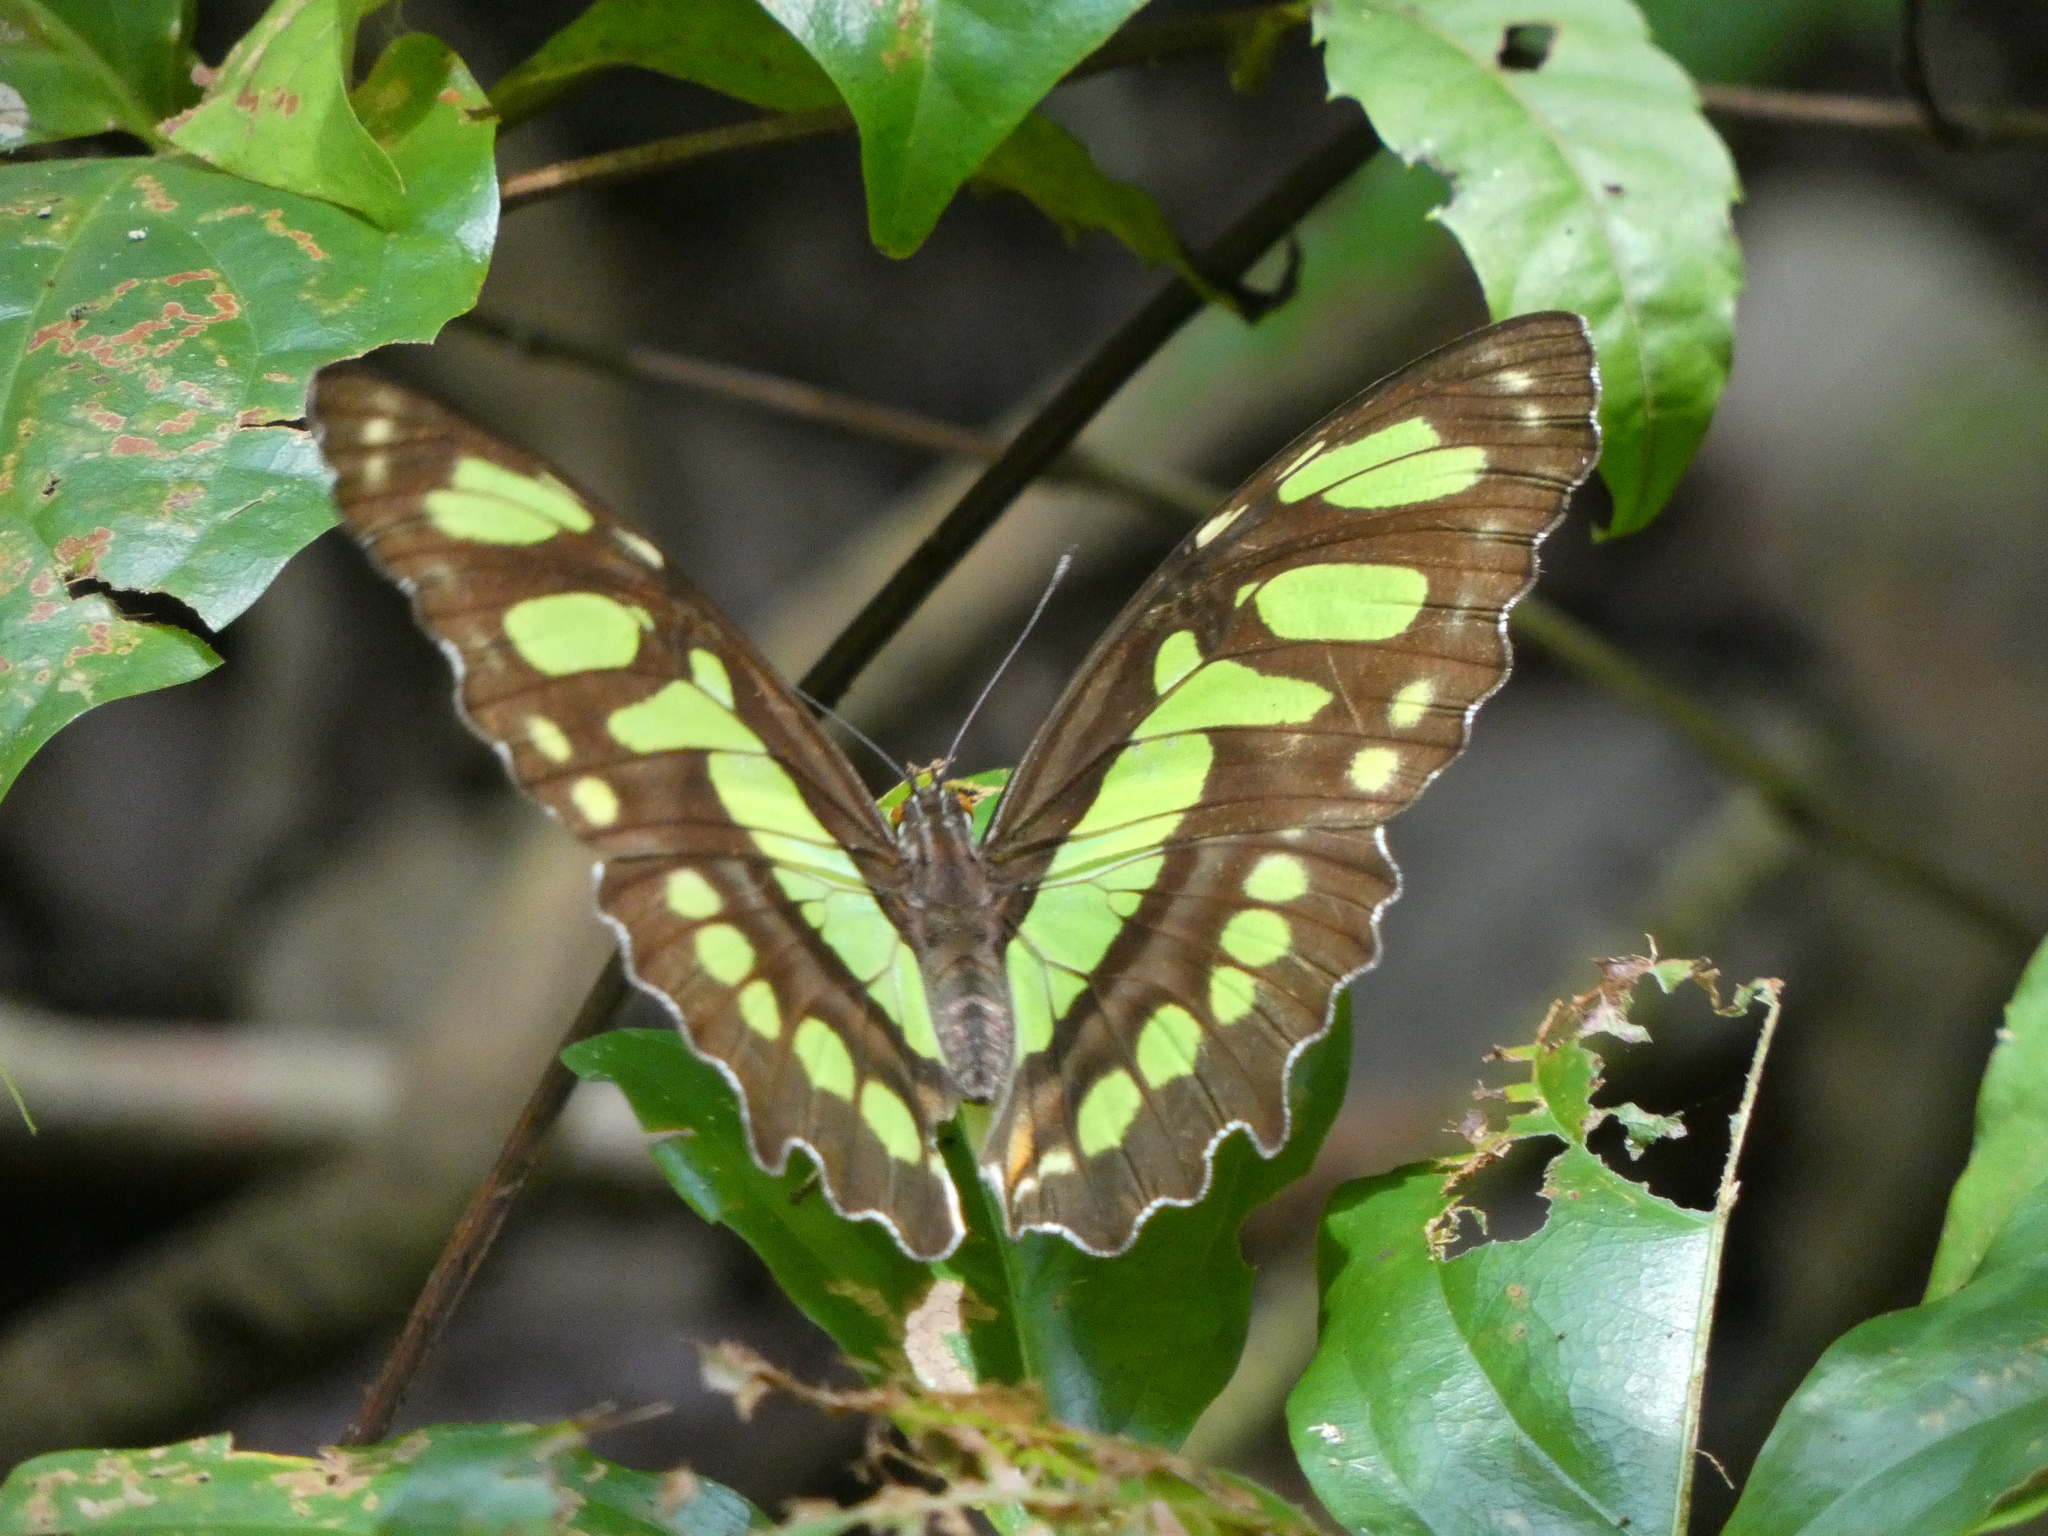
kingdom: Animalia
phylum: Arthropoda
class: Insecta
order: Lepidoptera
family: Nymphalidae
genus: Siproeta
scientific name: Siproeta stelenes
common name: Malachite
